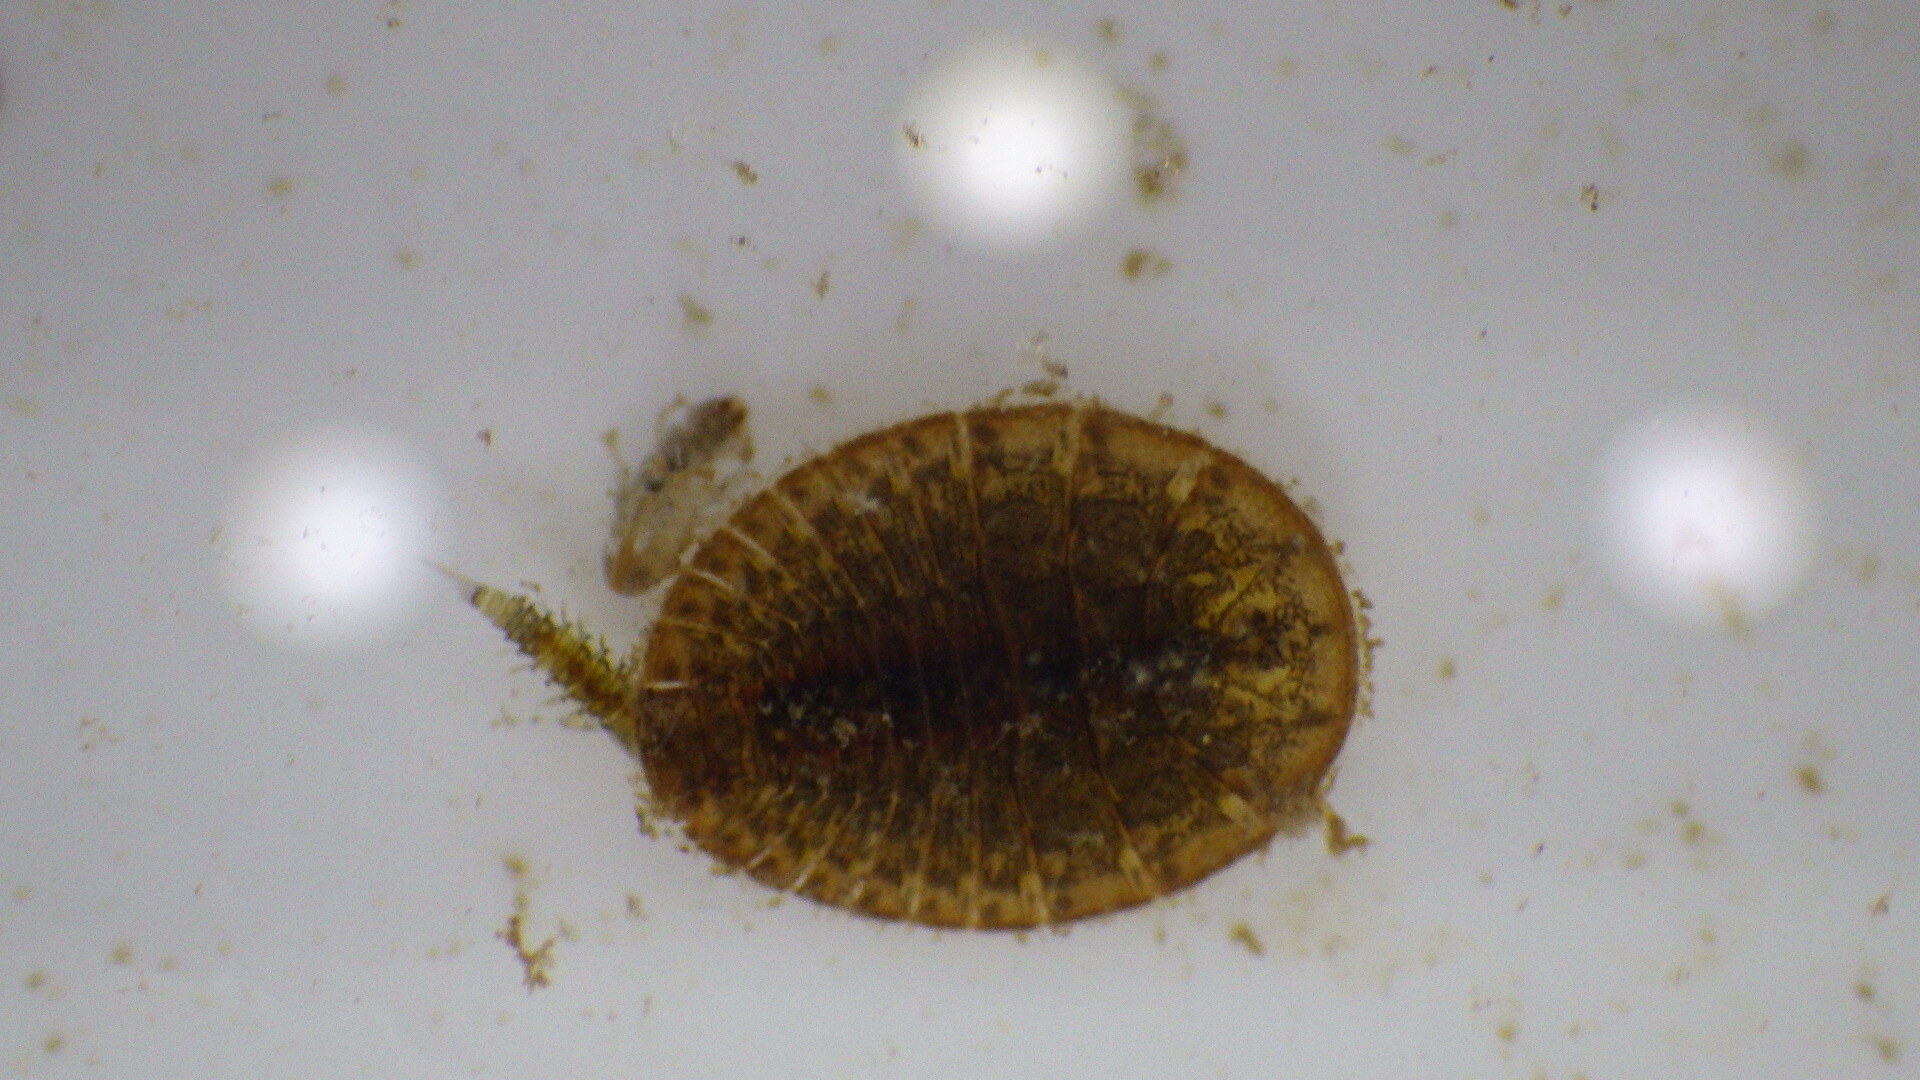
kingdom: Animalia
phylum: Arthropoda
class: Insecta
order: Coleoptera
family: Psephenidae
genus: Psephenus
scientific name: Psephenus herricki
